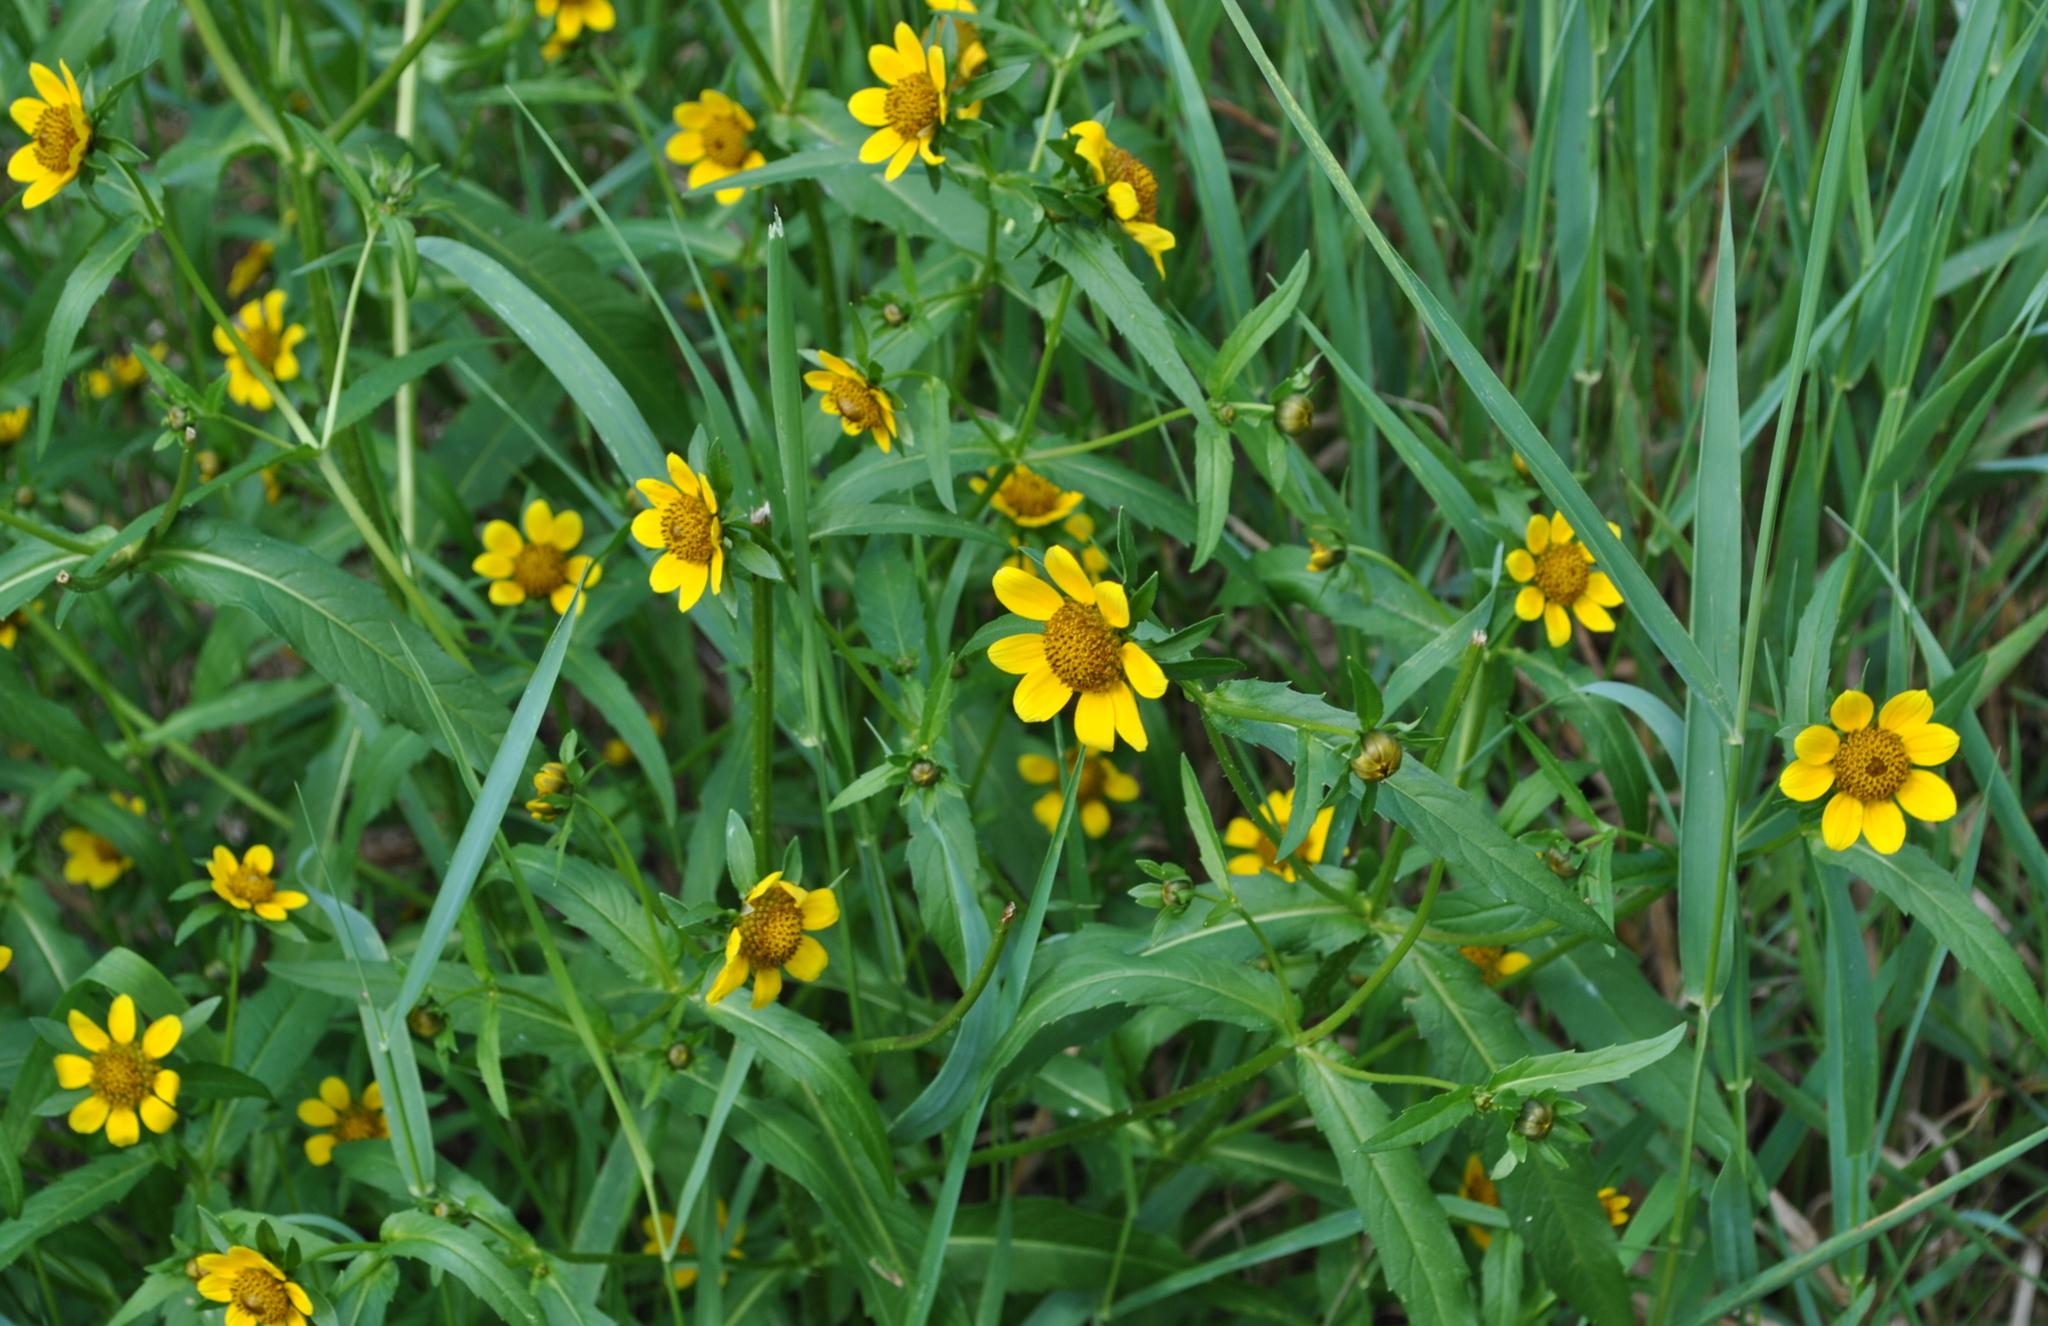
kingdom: Plantae
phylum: Tracheophyta
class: Magnoliopsida
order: Asterales
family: Asteraceae
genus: Bidens
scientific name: Bidens cernua
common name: Nodding bur-marigold
